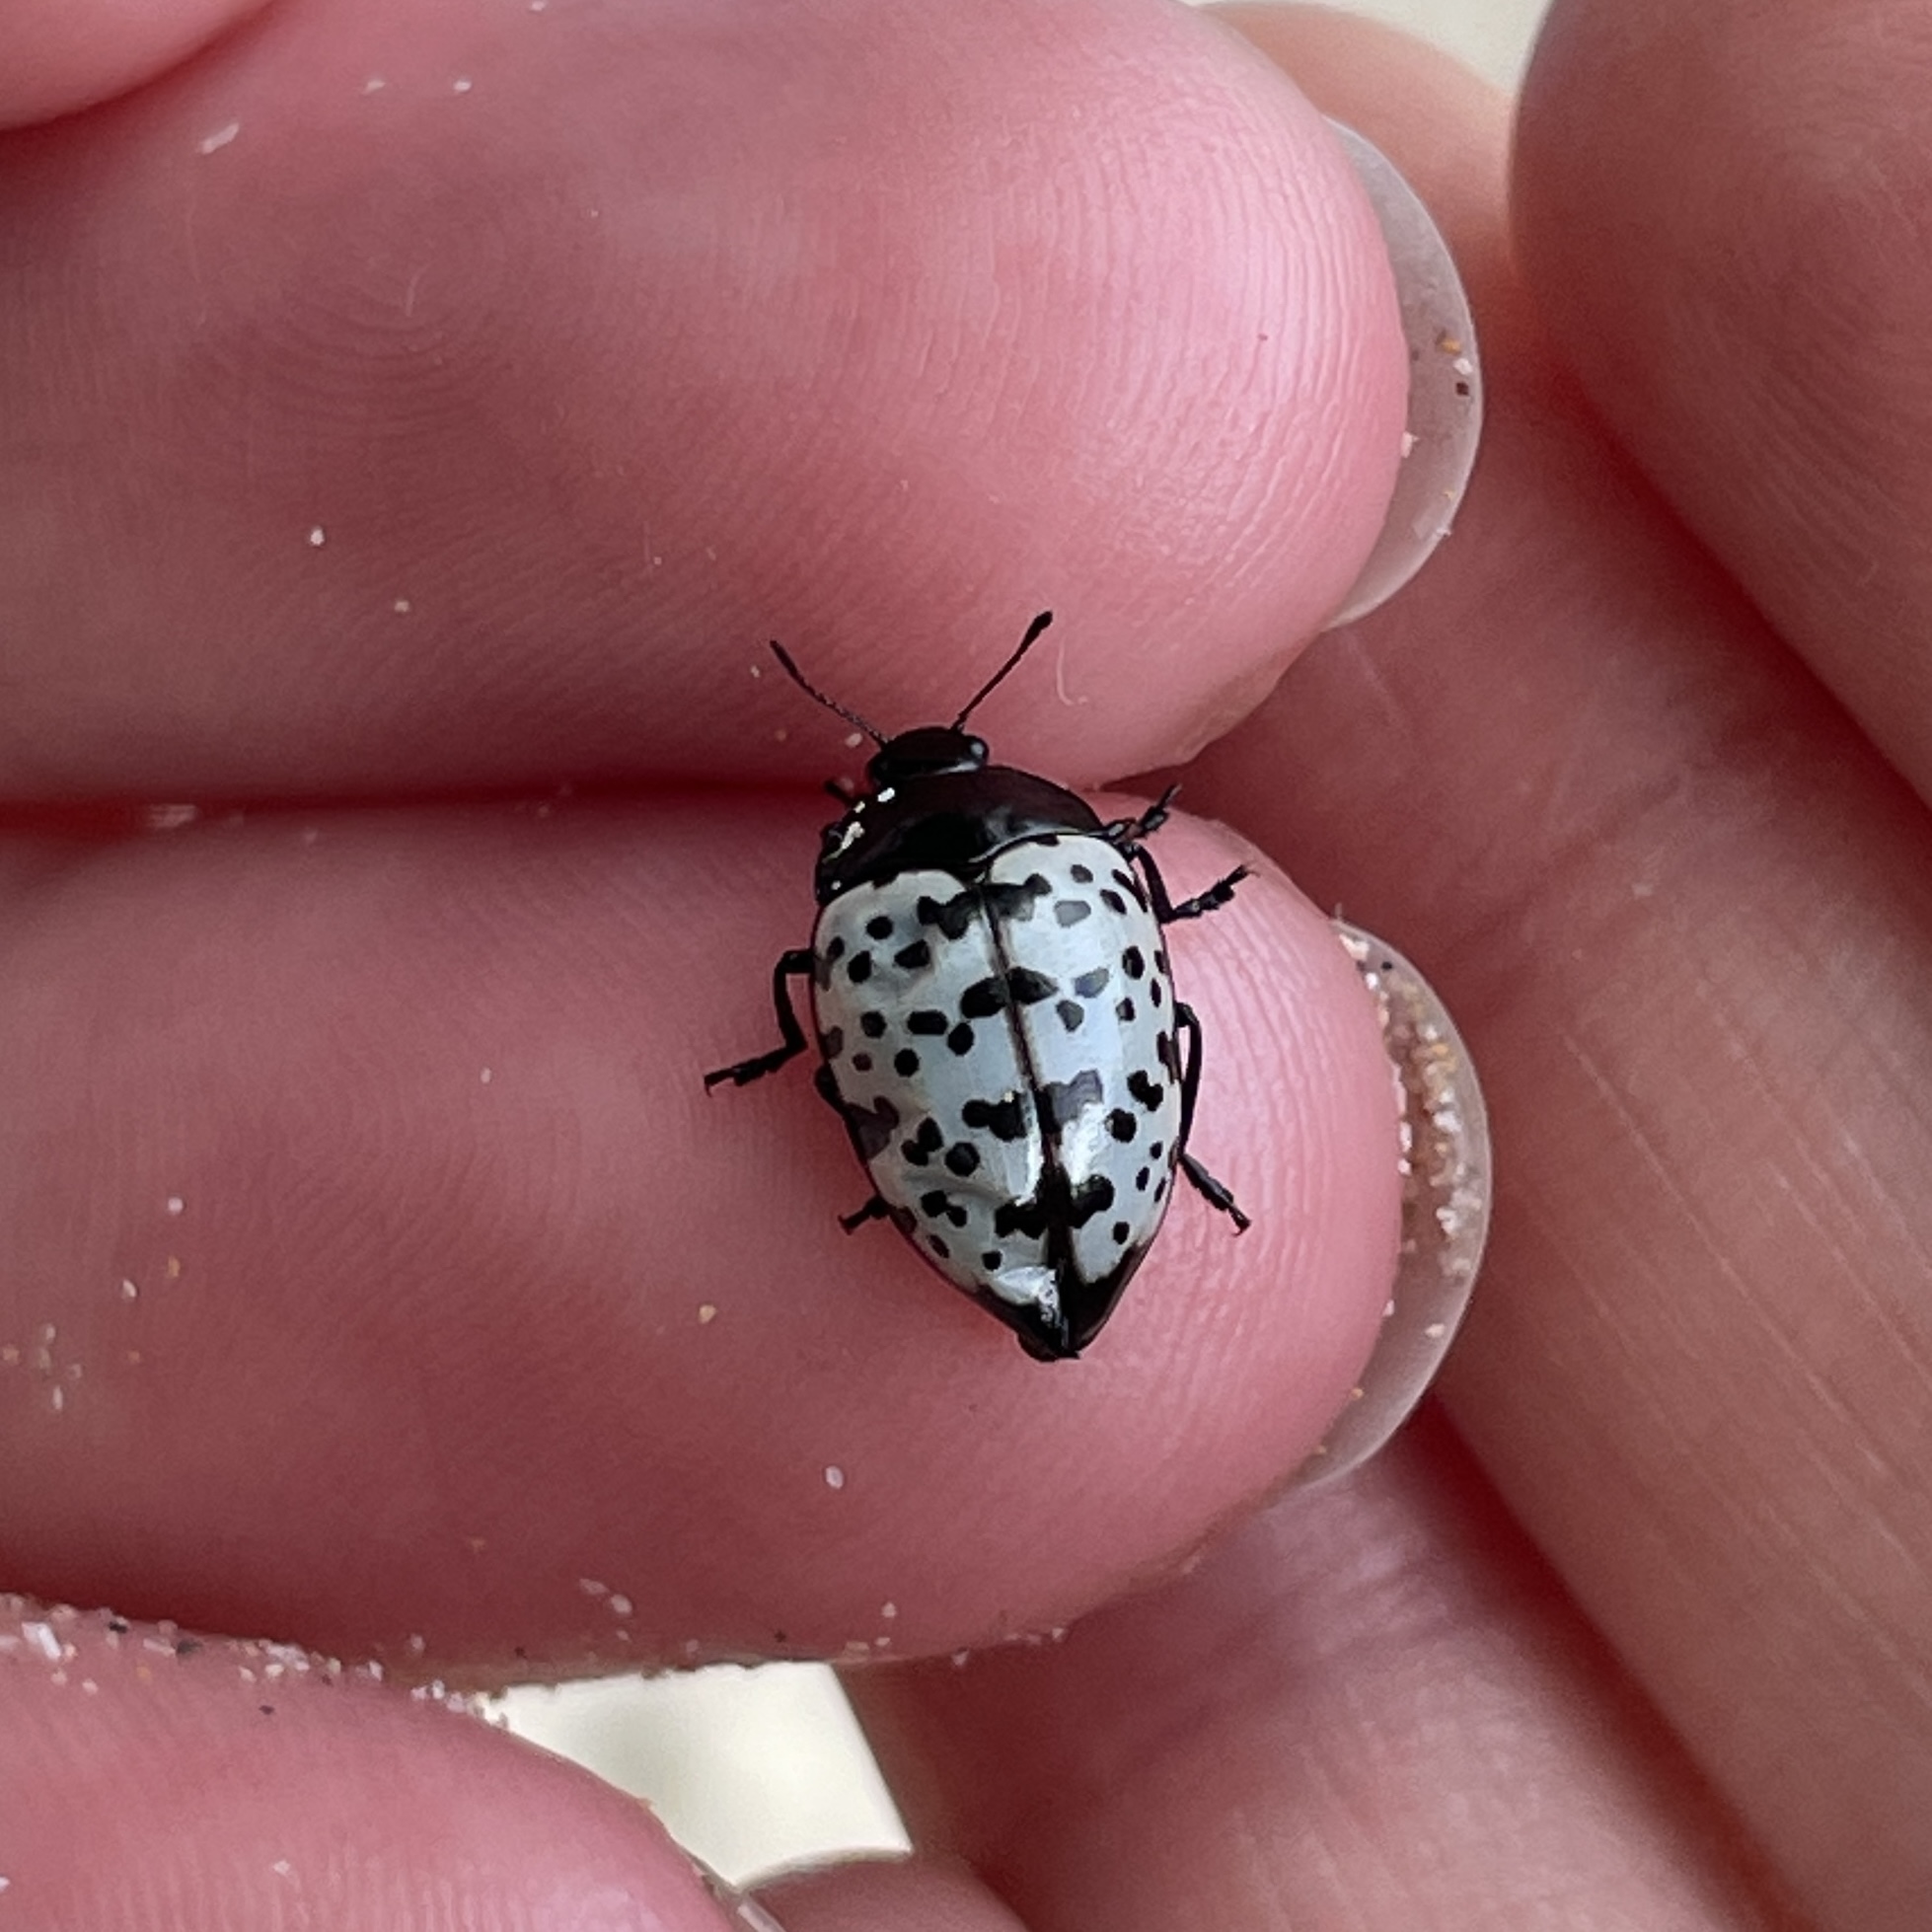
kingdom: Animalia
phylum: Arthropoda
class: Insecta
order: Coleoptera
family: Erotylidae
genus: Iphiclus
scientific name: Iphiclus nigropictus
